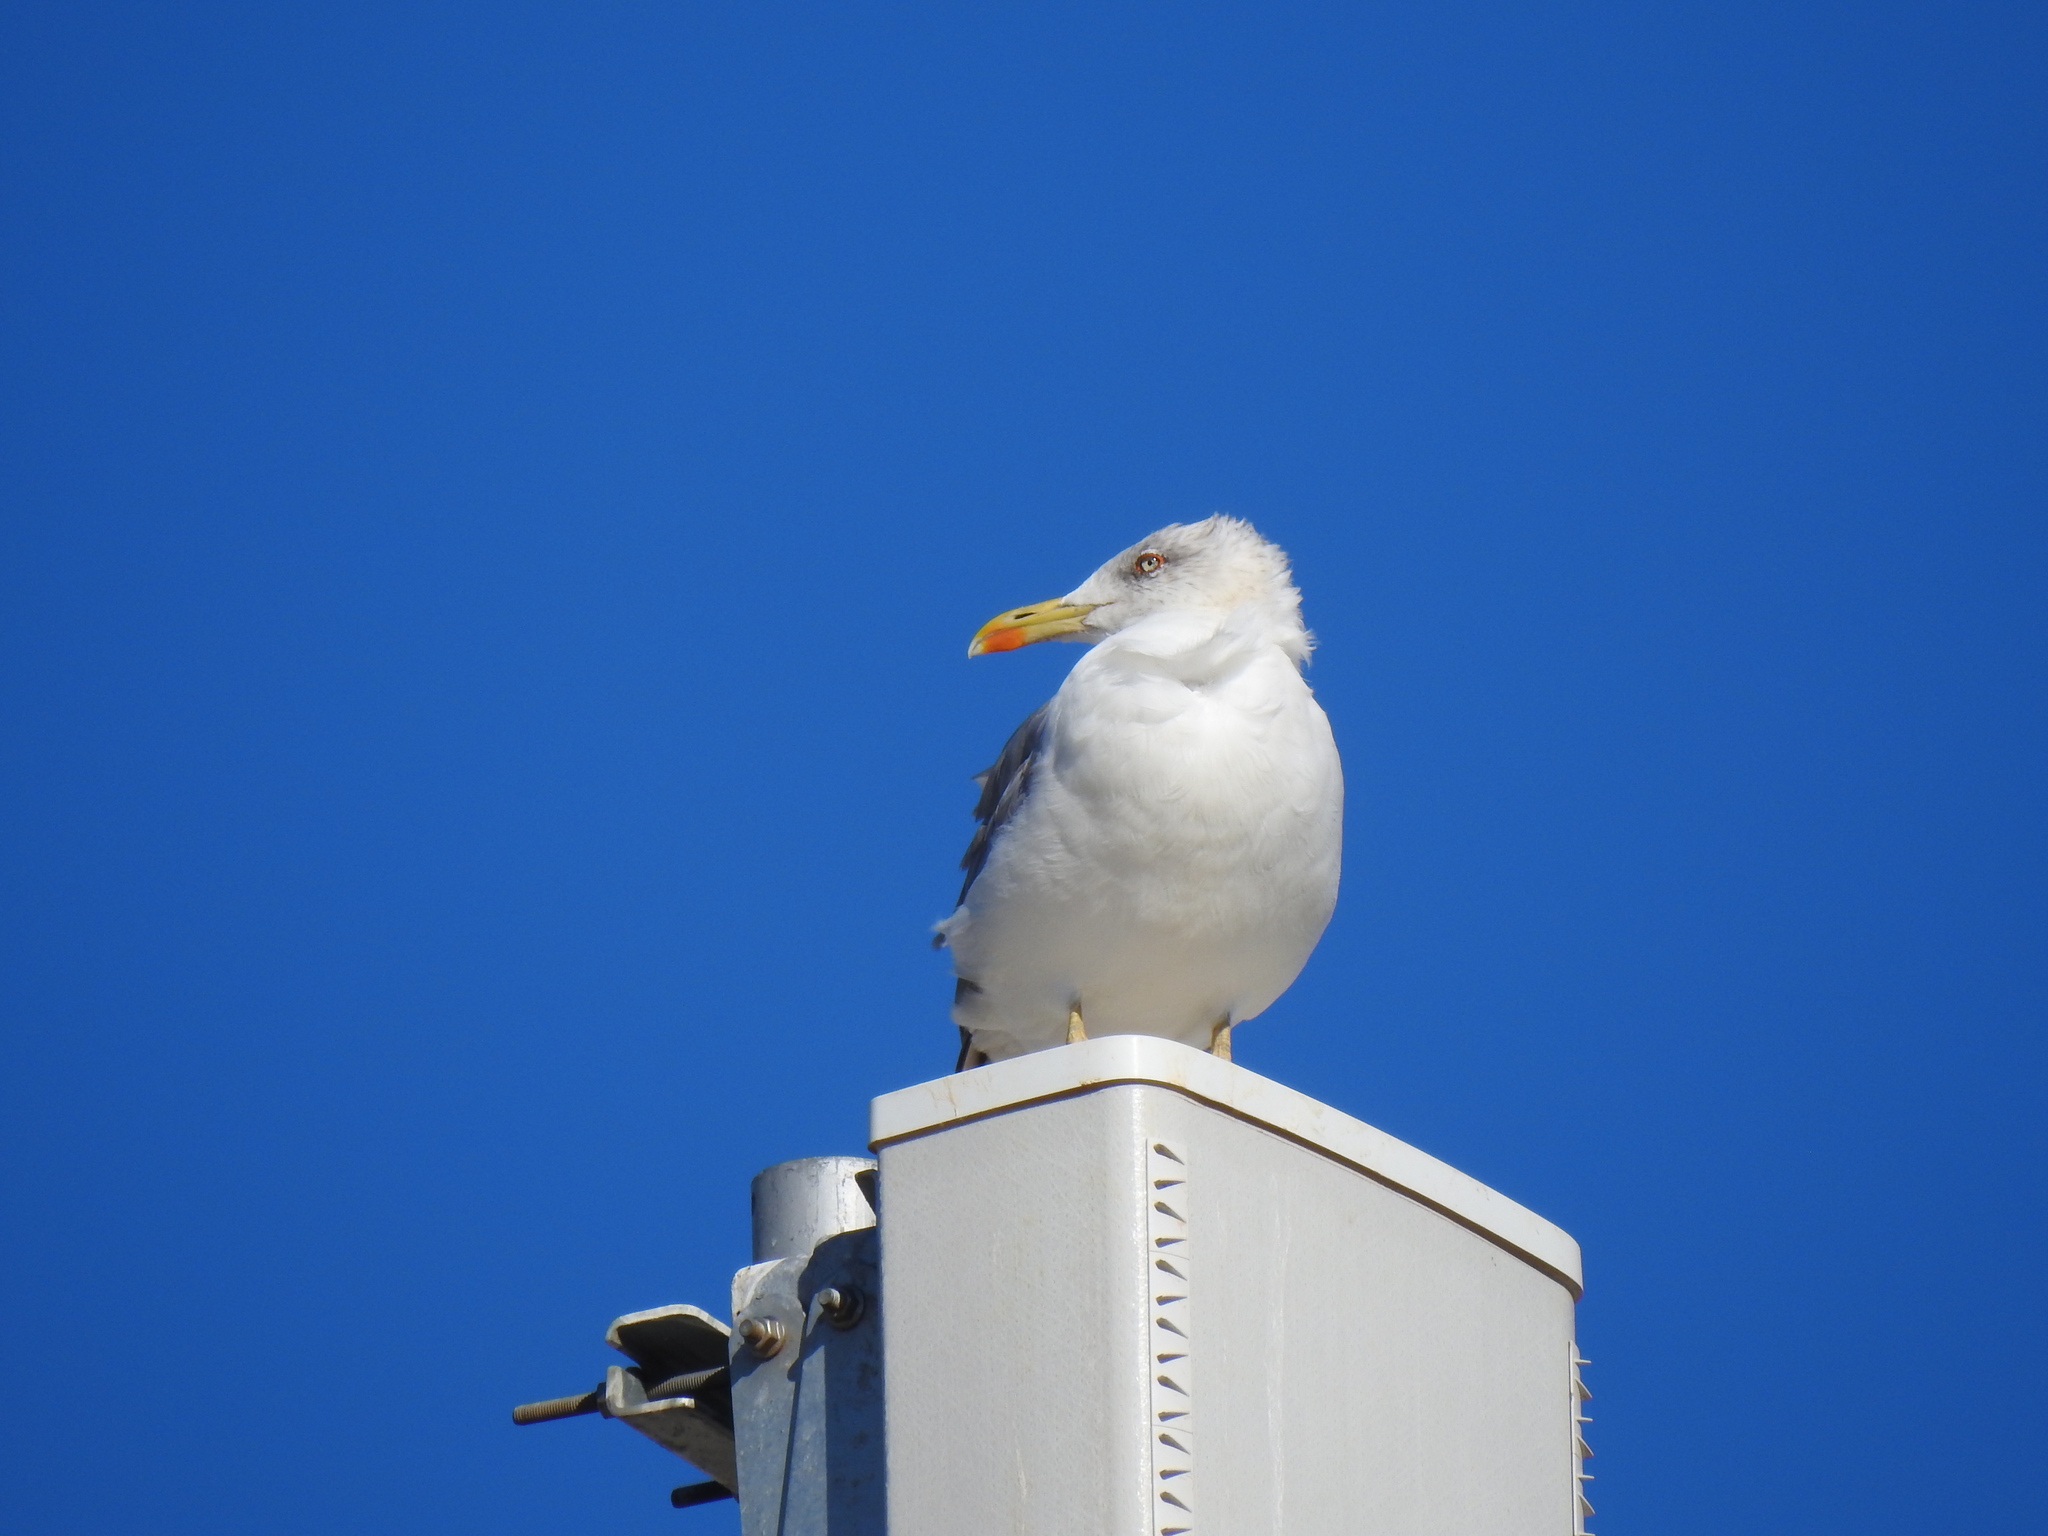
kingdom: Animalia
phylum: Chordata
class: Aves
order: Charadriiformes
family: Laridae
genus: Larus
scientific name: Larus michahellis
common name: Yellow-legged gull
